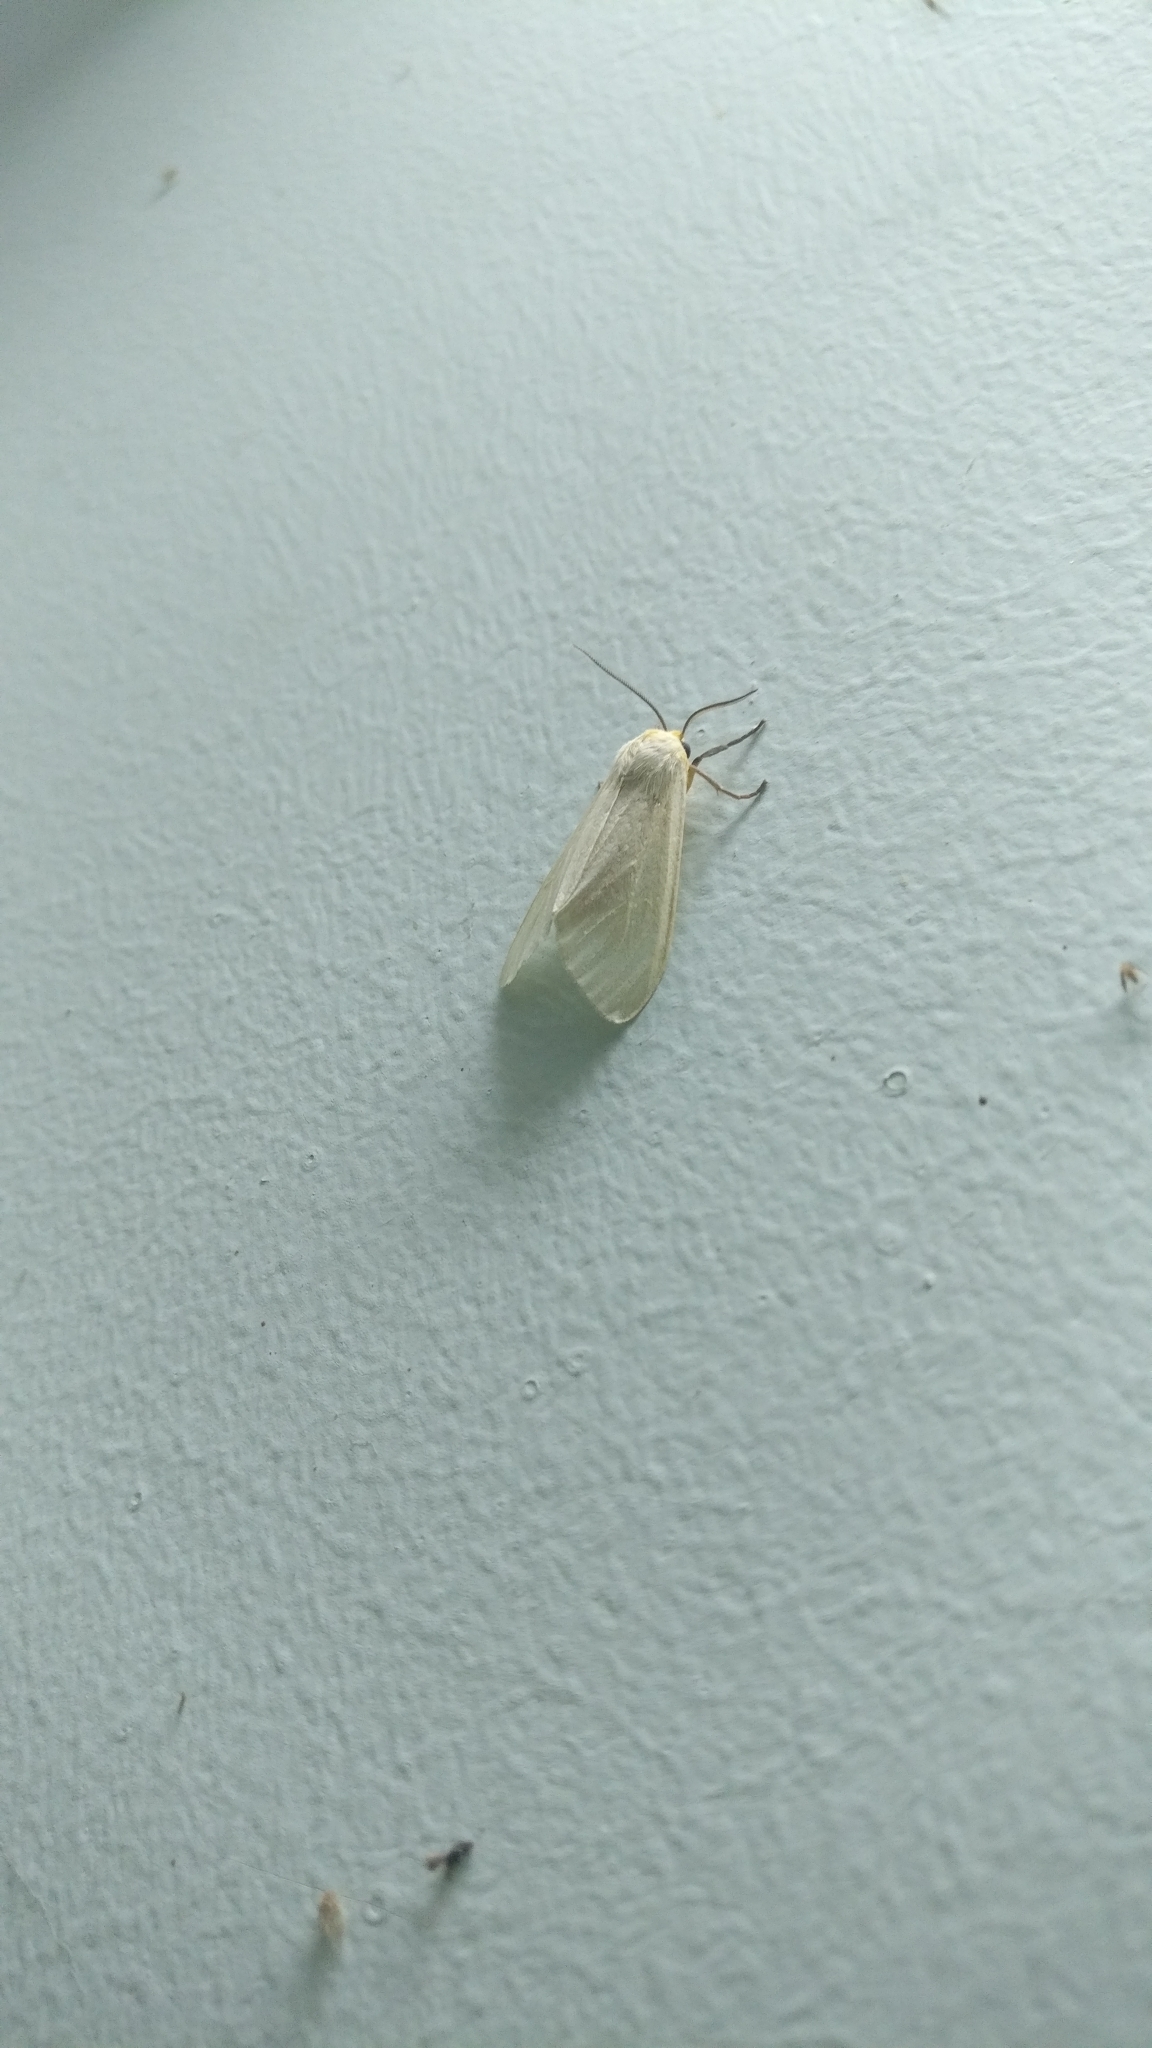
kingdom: Animalia
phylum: Arthropoda
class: Insecta
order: Lepidoptera
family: Erebidae
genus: Pareuchaetes
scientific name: Pareuchaetes pseudoinsulata
